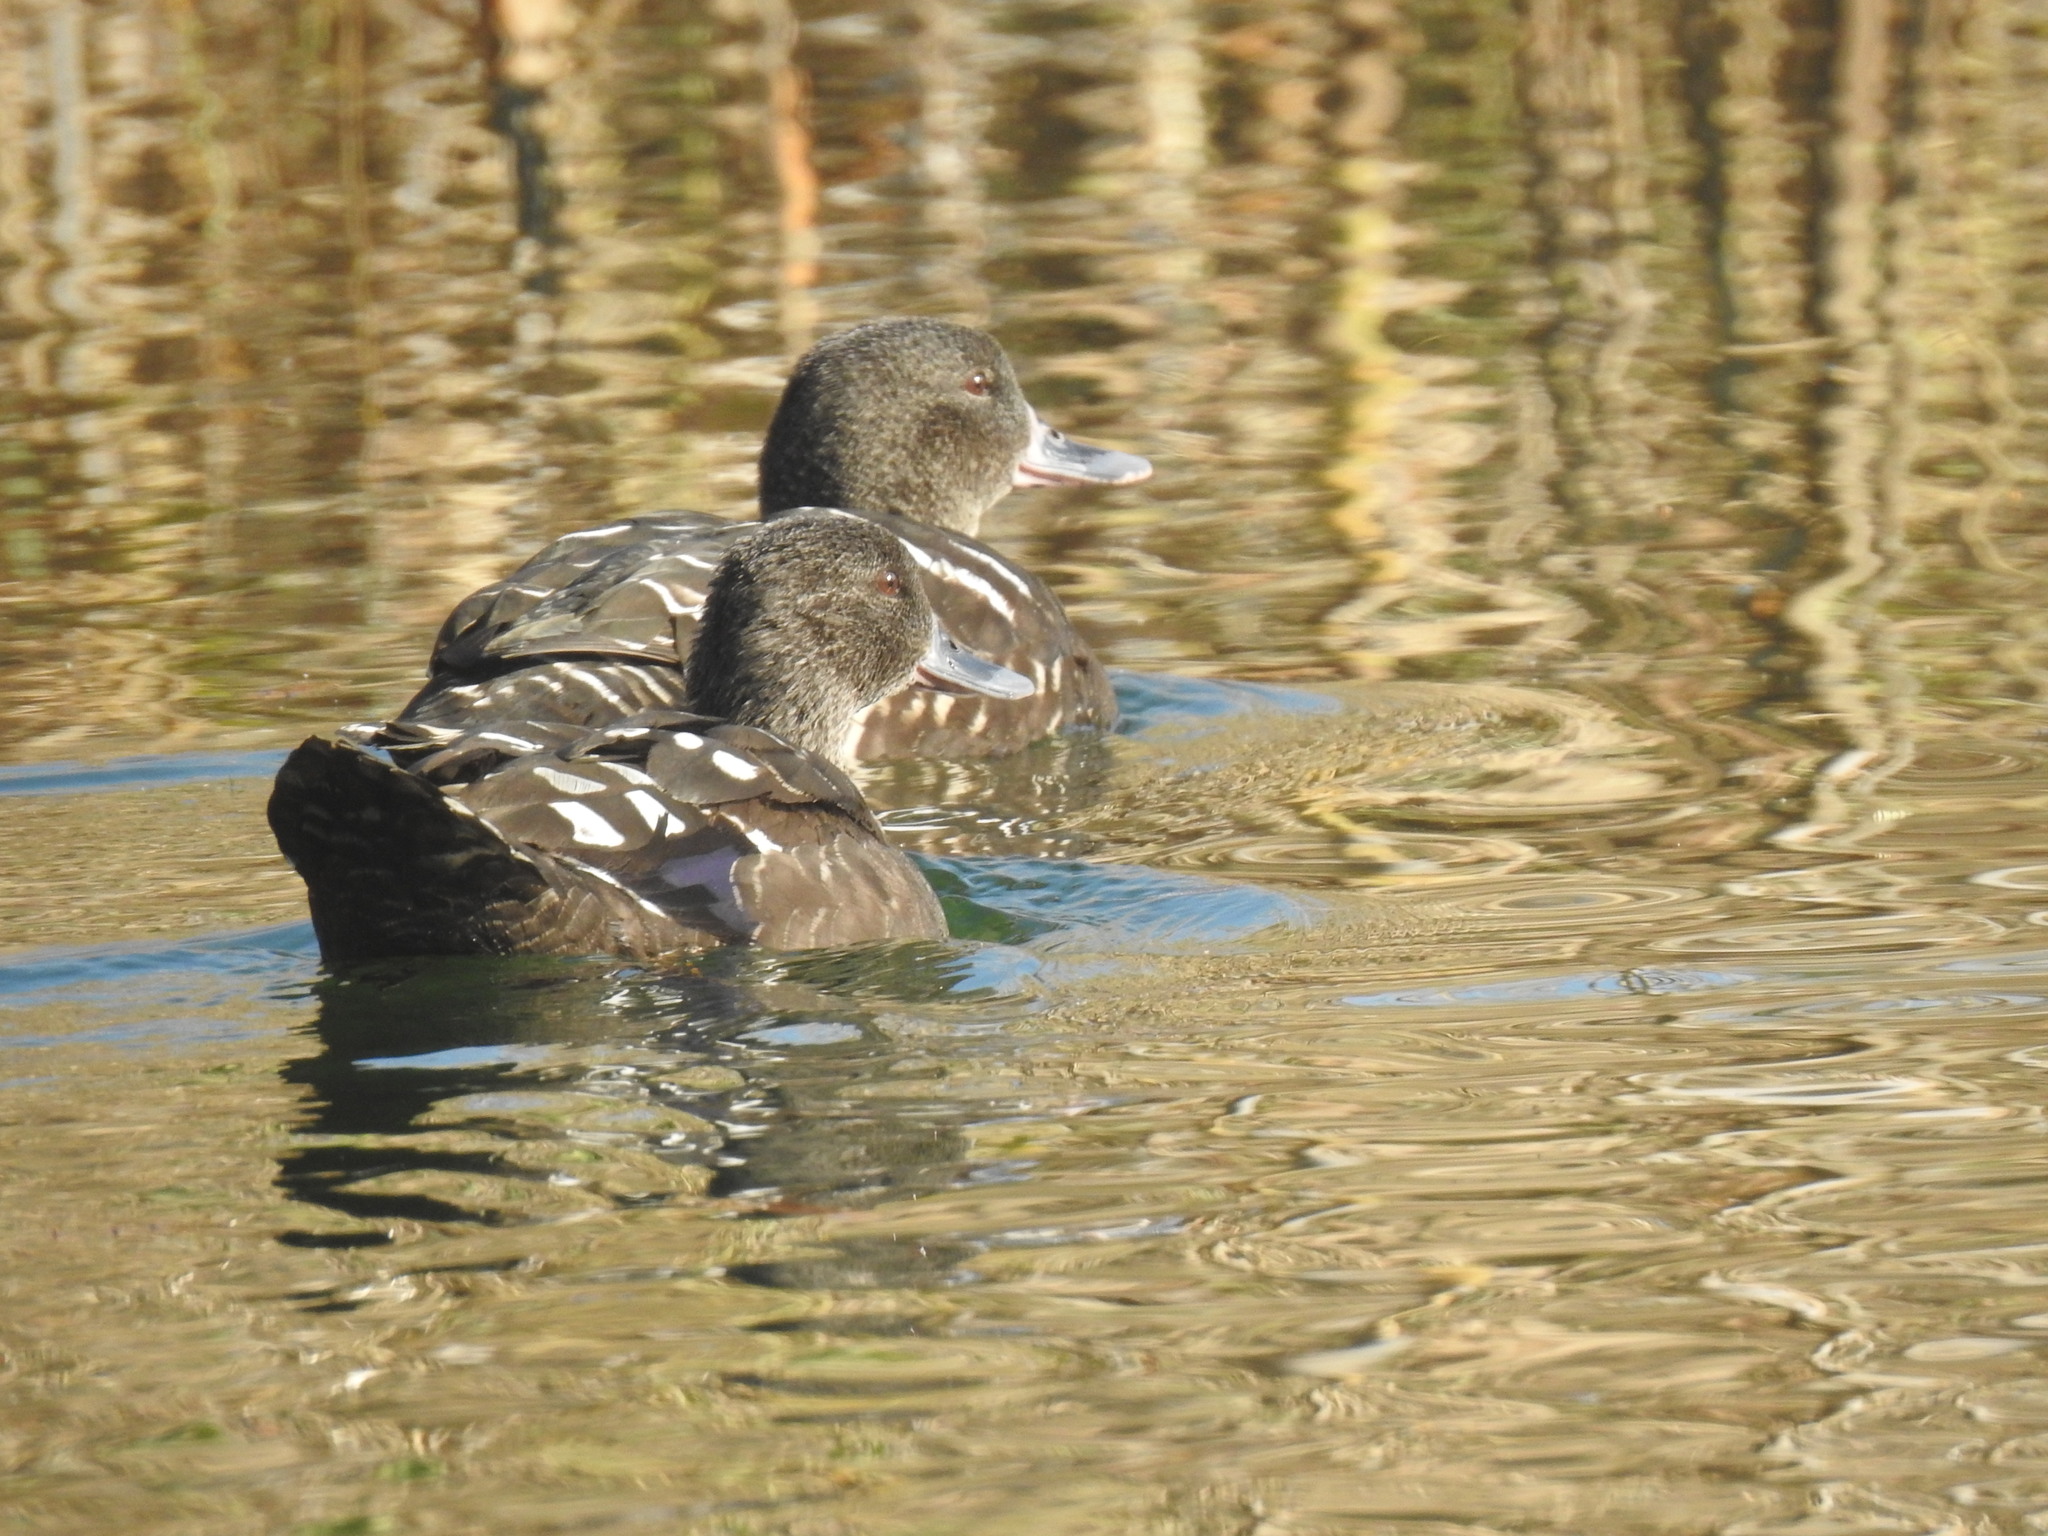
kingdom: Animalia
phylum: Chordata
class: Aves
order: Anseriformes
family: Anatidae
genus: Anas
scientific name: Anas sparsa
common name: African black duck
